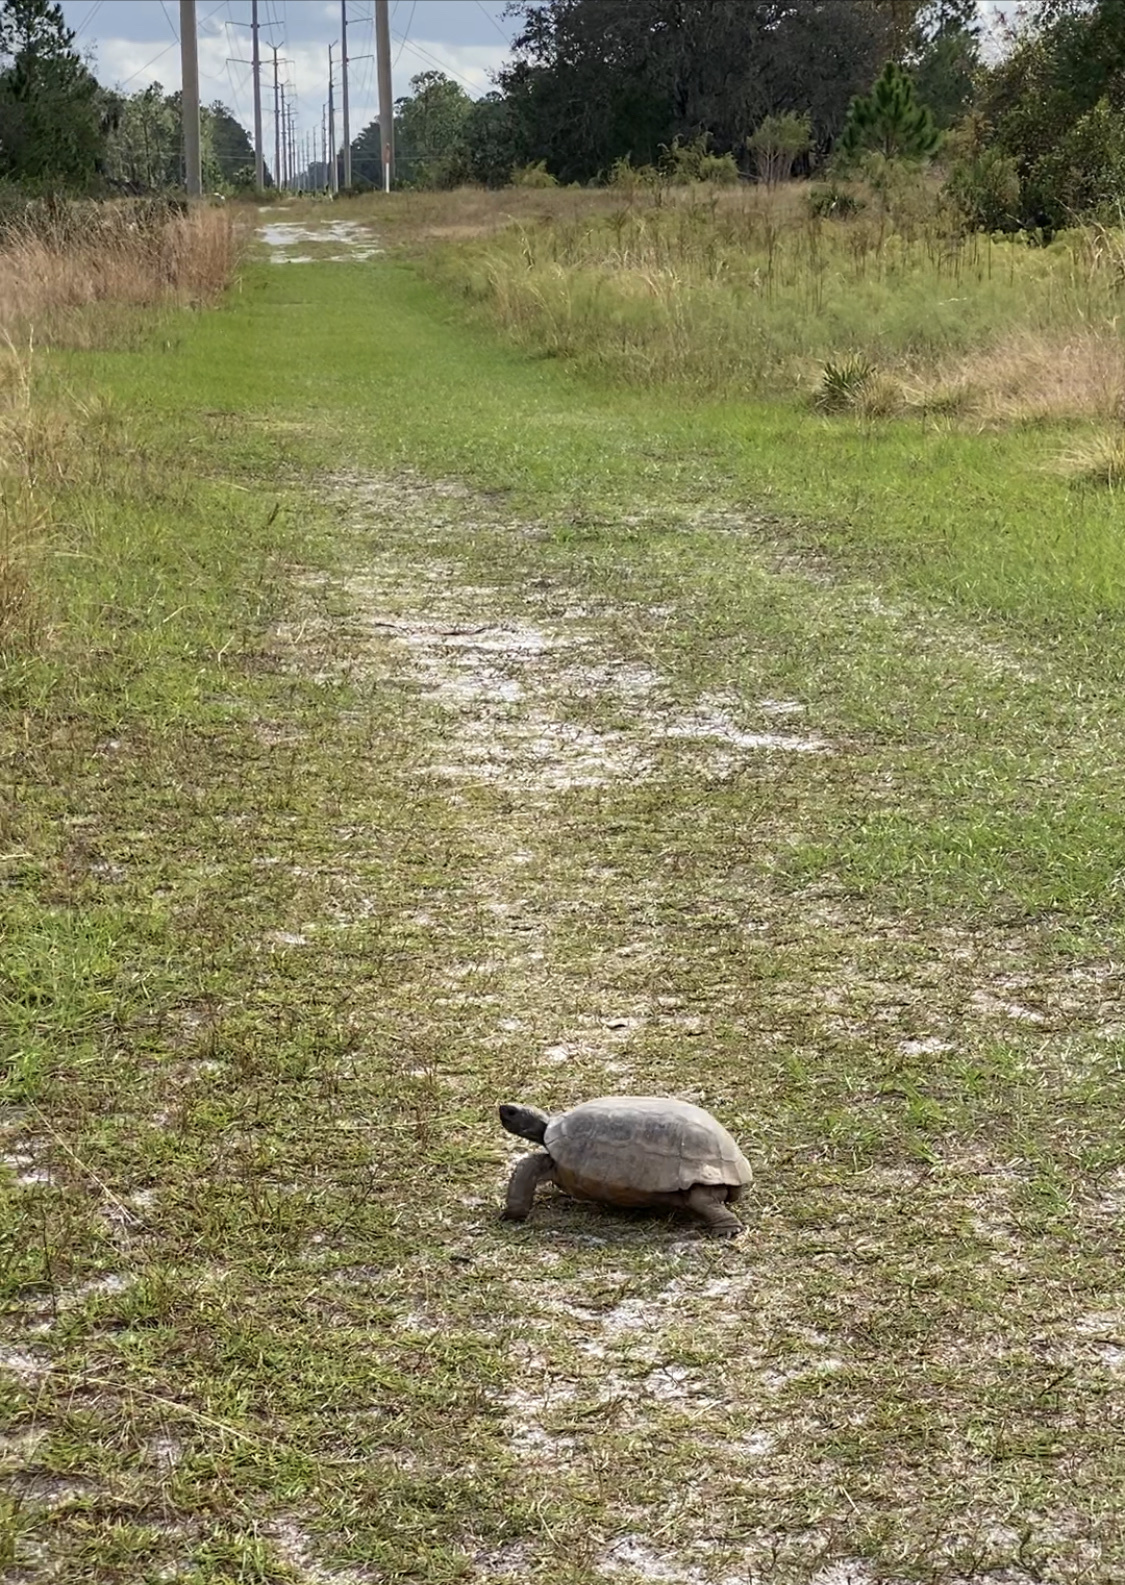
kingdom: Animalia
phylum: Chordata
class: Testudines
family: Testudinidae
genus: Gopherus
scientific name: Gopherus polyphemus
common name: Florida gopher tortoise
